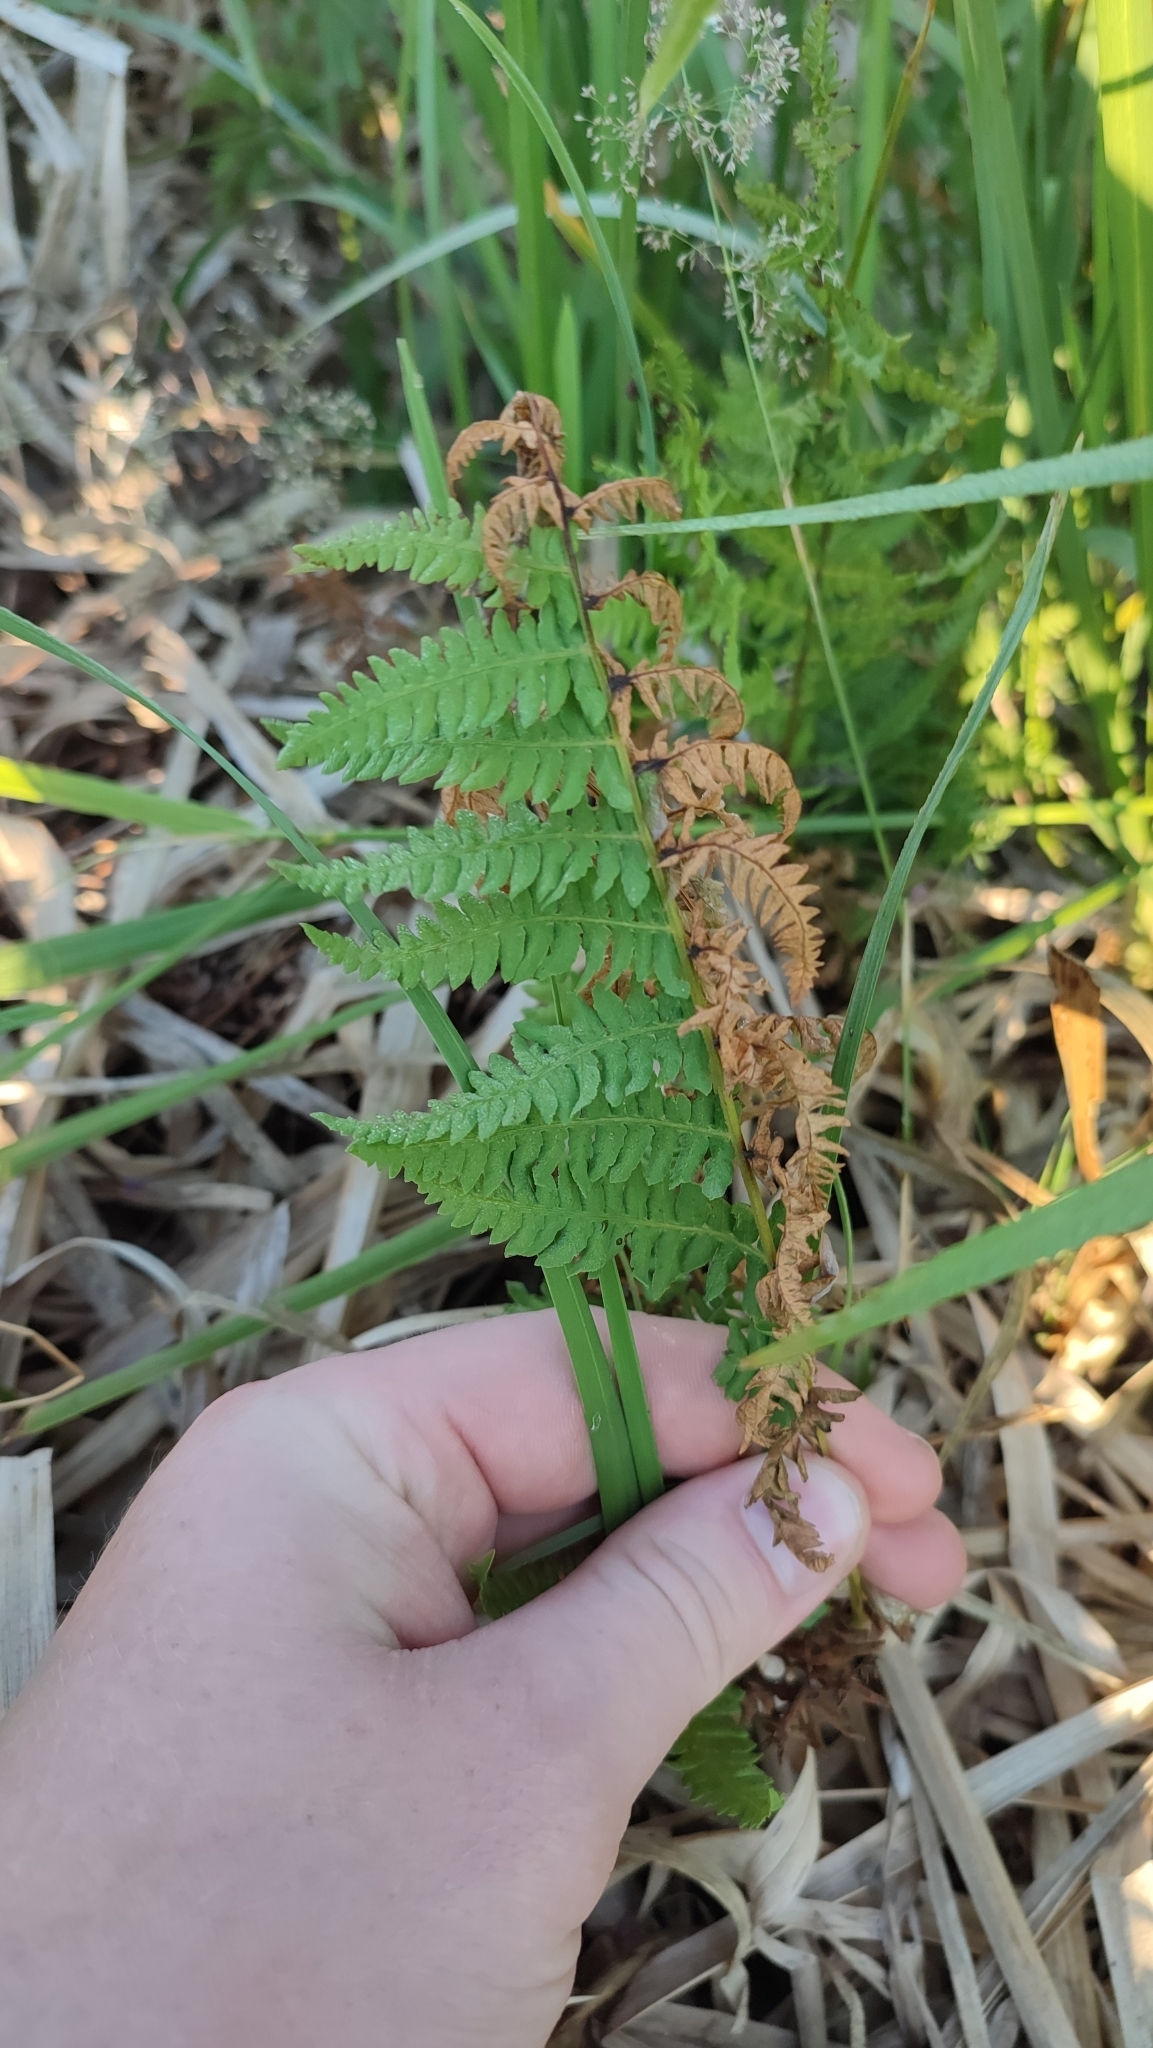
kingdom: Plantae
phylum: Tracheophyta
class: Polypodiopsida
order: Polypodiales
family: Thelypteridaceae
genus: Thelypteris
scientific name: Thelypteris palustris
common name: Marsh fern
